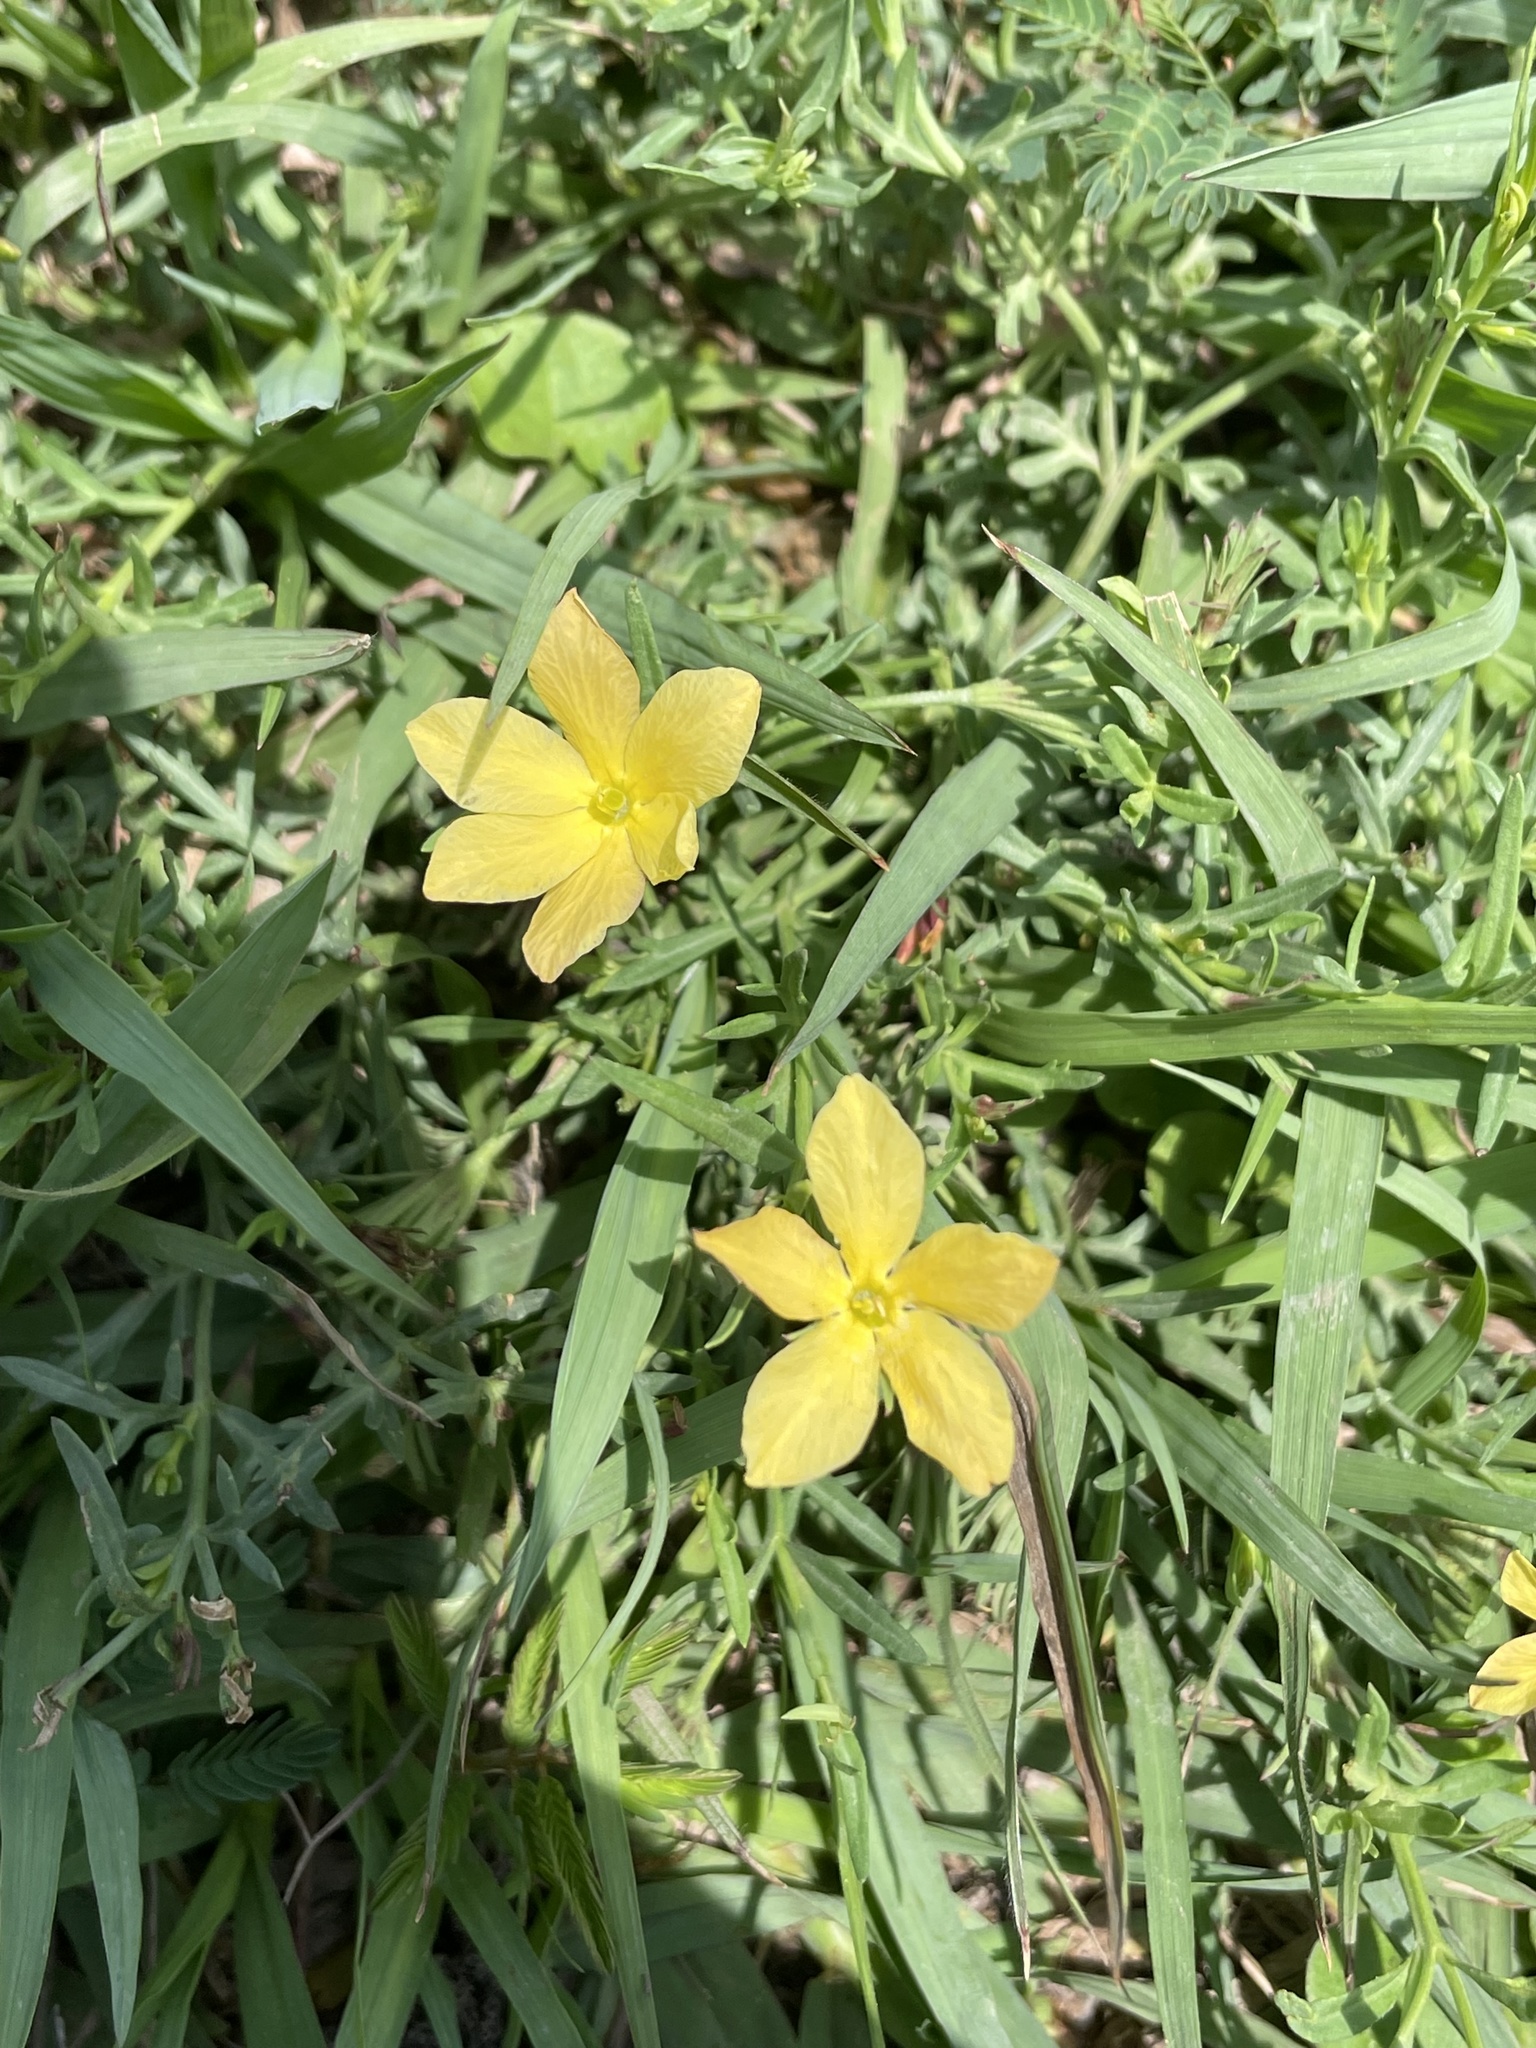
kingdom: Plantae
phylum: Tracheophyta
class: Magnoliopsida
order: Lamiales
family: Oleaceae
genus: Menodora
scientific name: Menodora heterophylla
